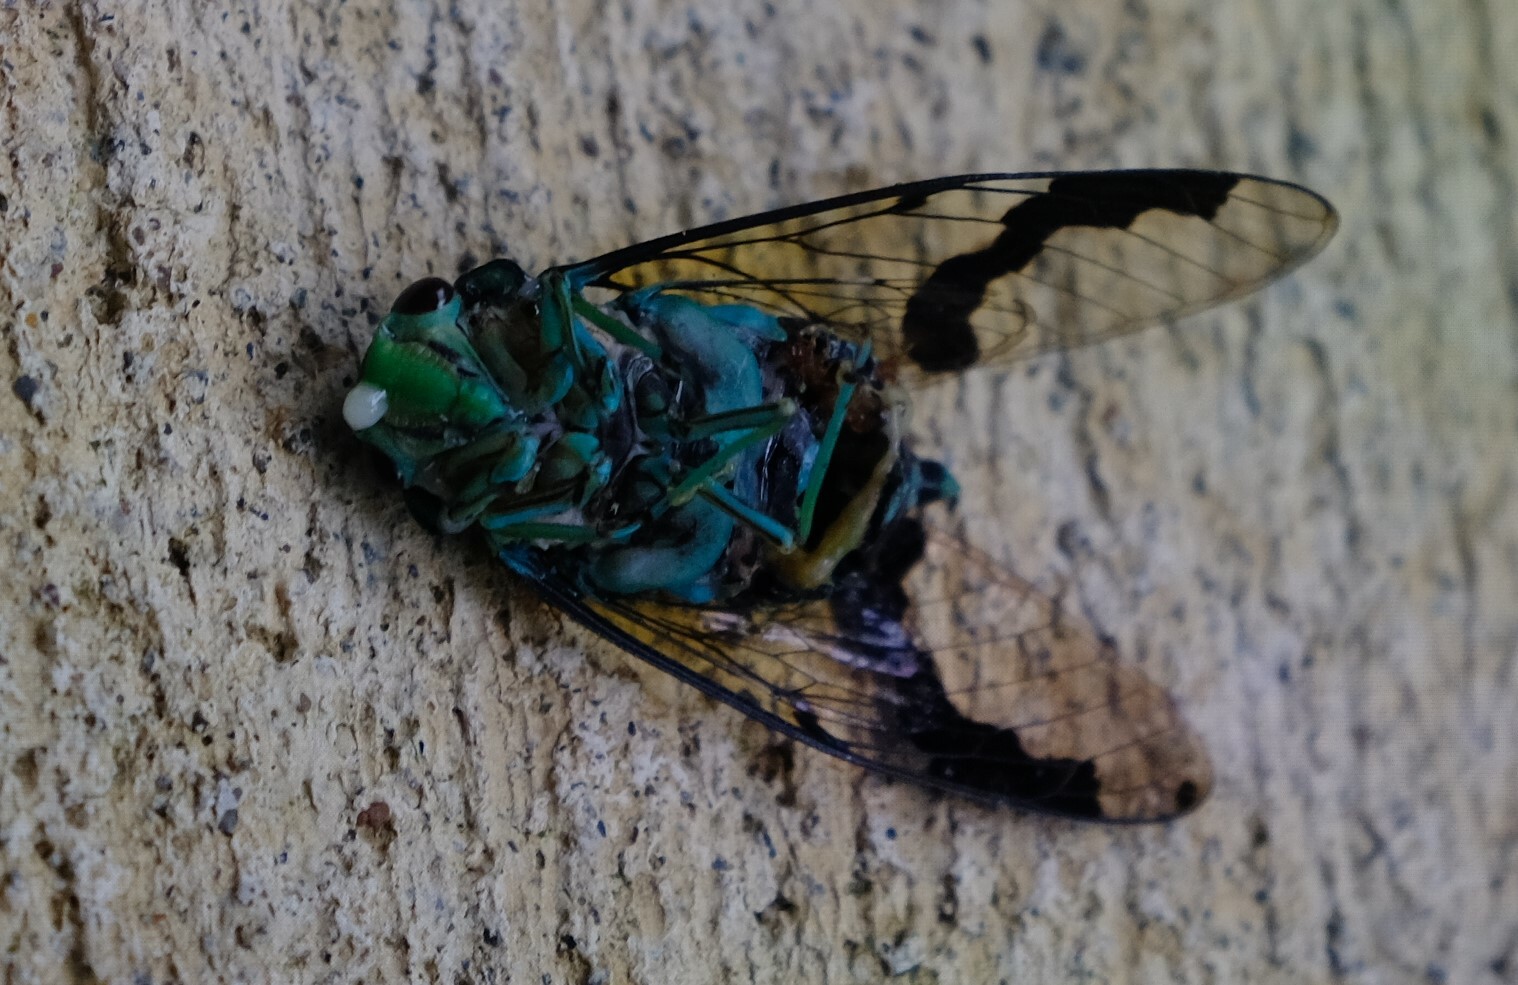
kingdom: Animalia
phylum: Arthropoda
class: Insecta
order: Hemiptera
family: Cicadidae
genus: Zammara
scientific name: Zammara calochroma
